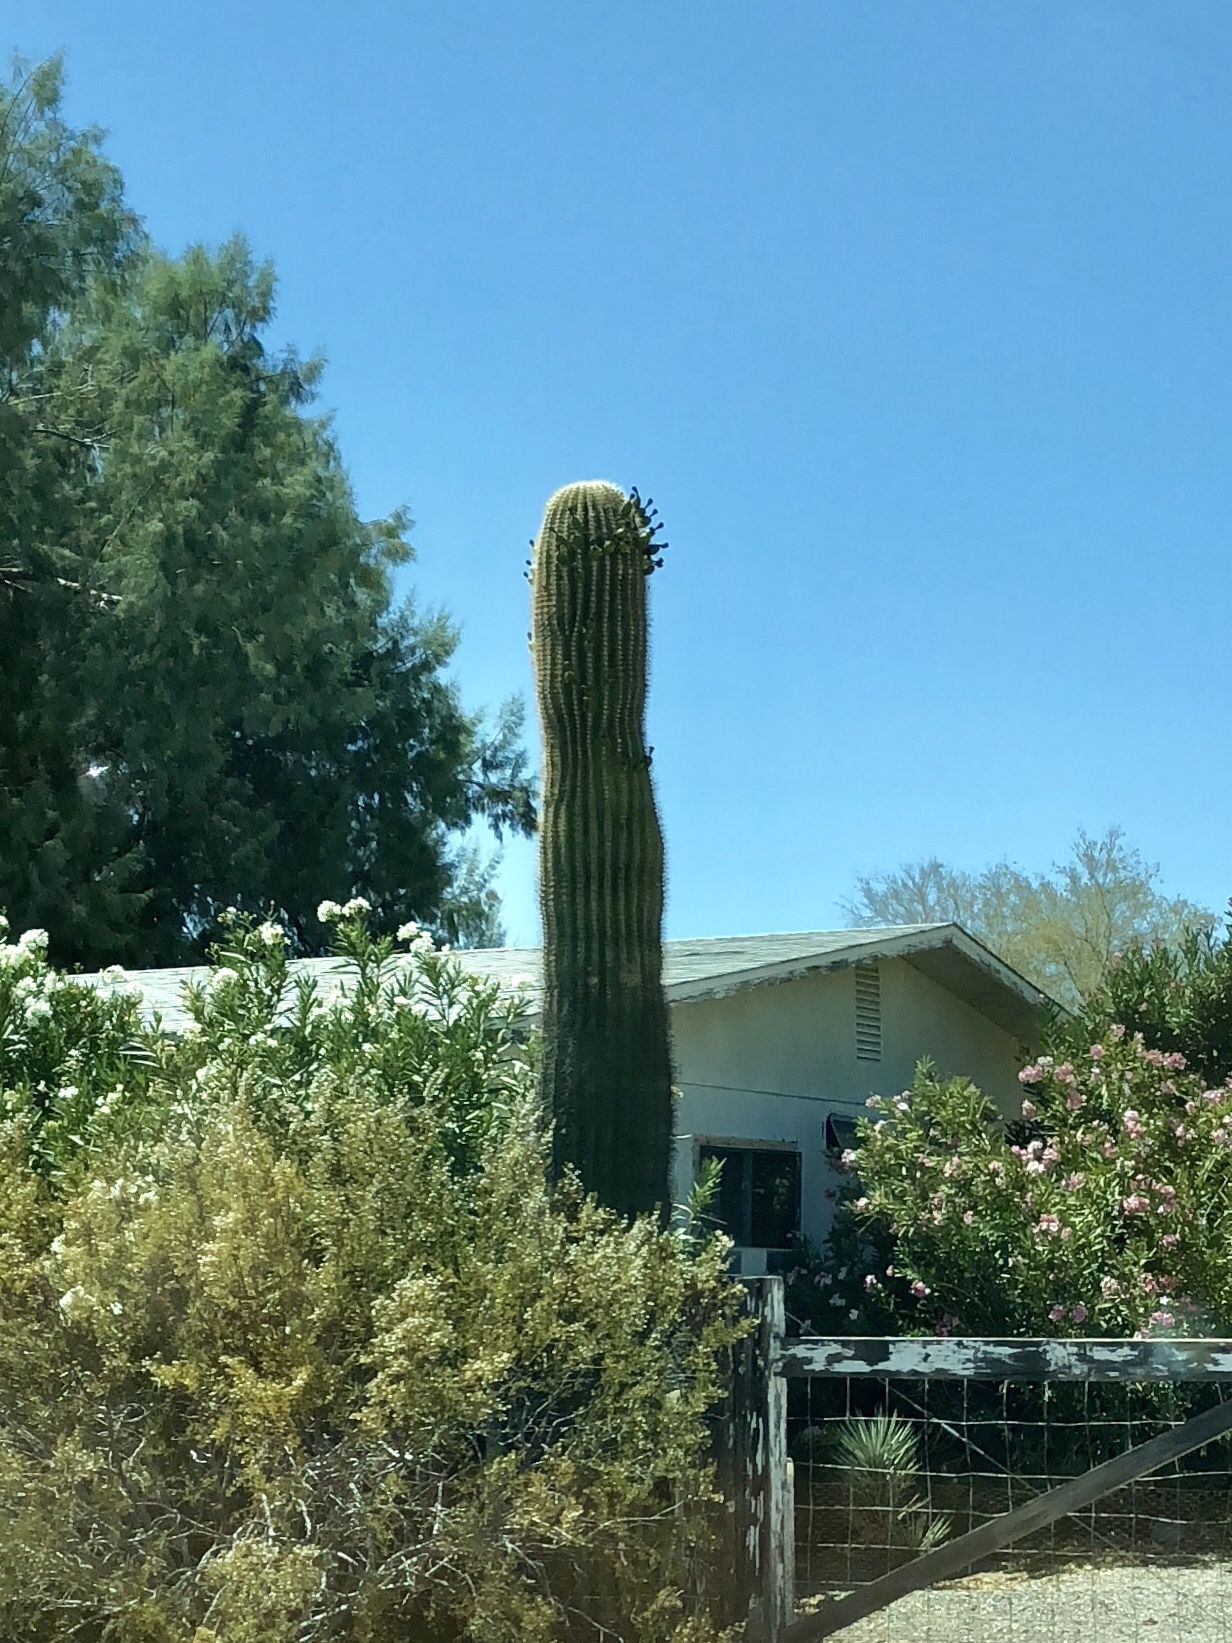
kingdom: Plantae
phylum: Tracheophyta
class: Magnoliopsida
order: Caryophyllales
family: Cactaceae
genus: Carnegiea
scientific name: Carnegiea gigantea
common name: Saguaro
